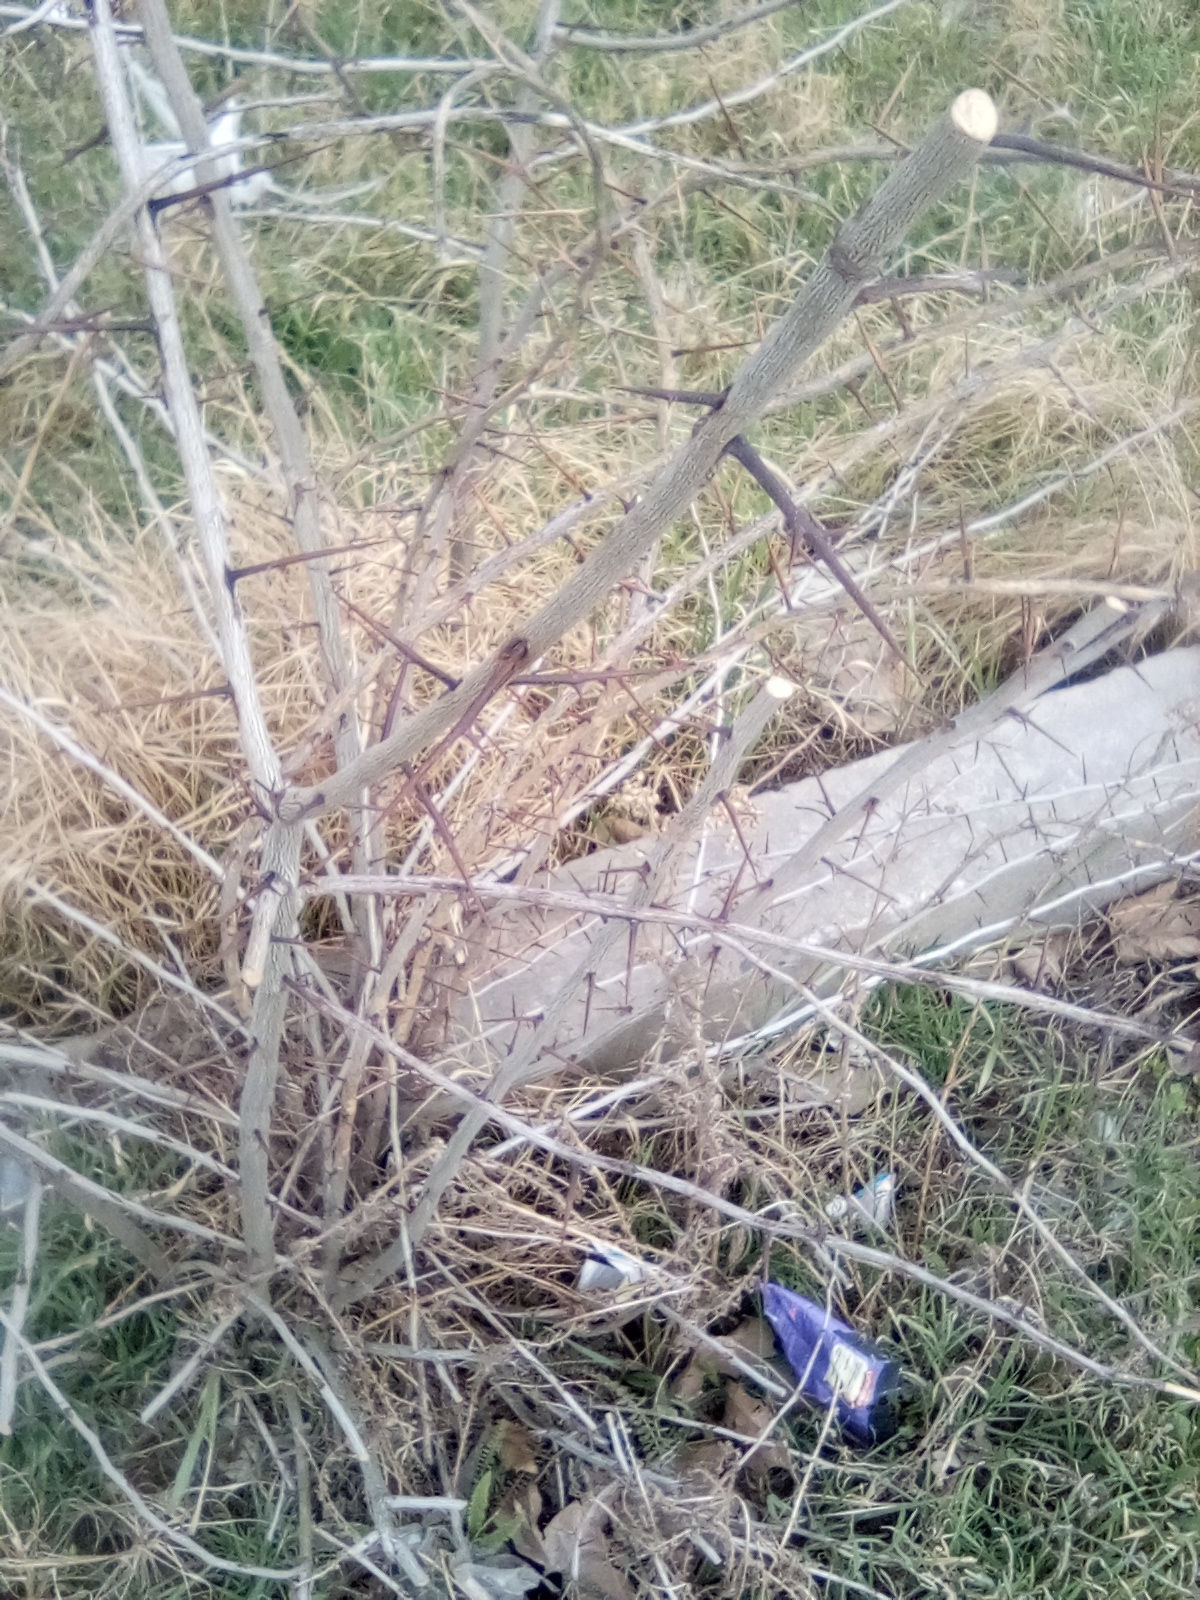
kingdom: Plantae
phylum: Tracheophyta
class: Magnoliopsida
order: Fabales
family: Fabaceae
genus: Gleditsia
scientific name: Gleditsia triacanthos
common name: Common honeylocust
